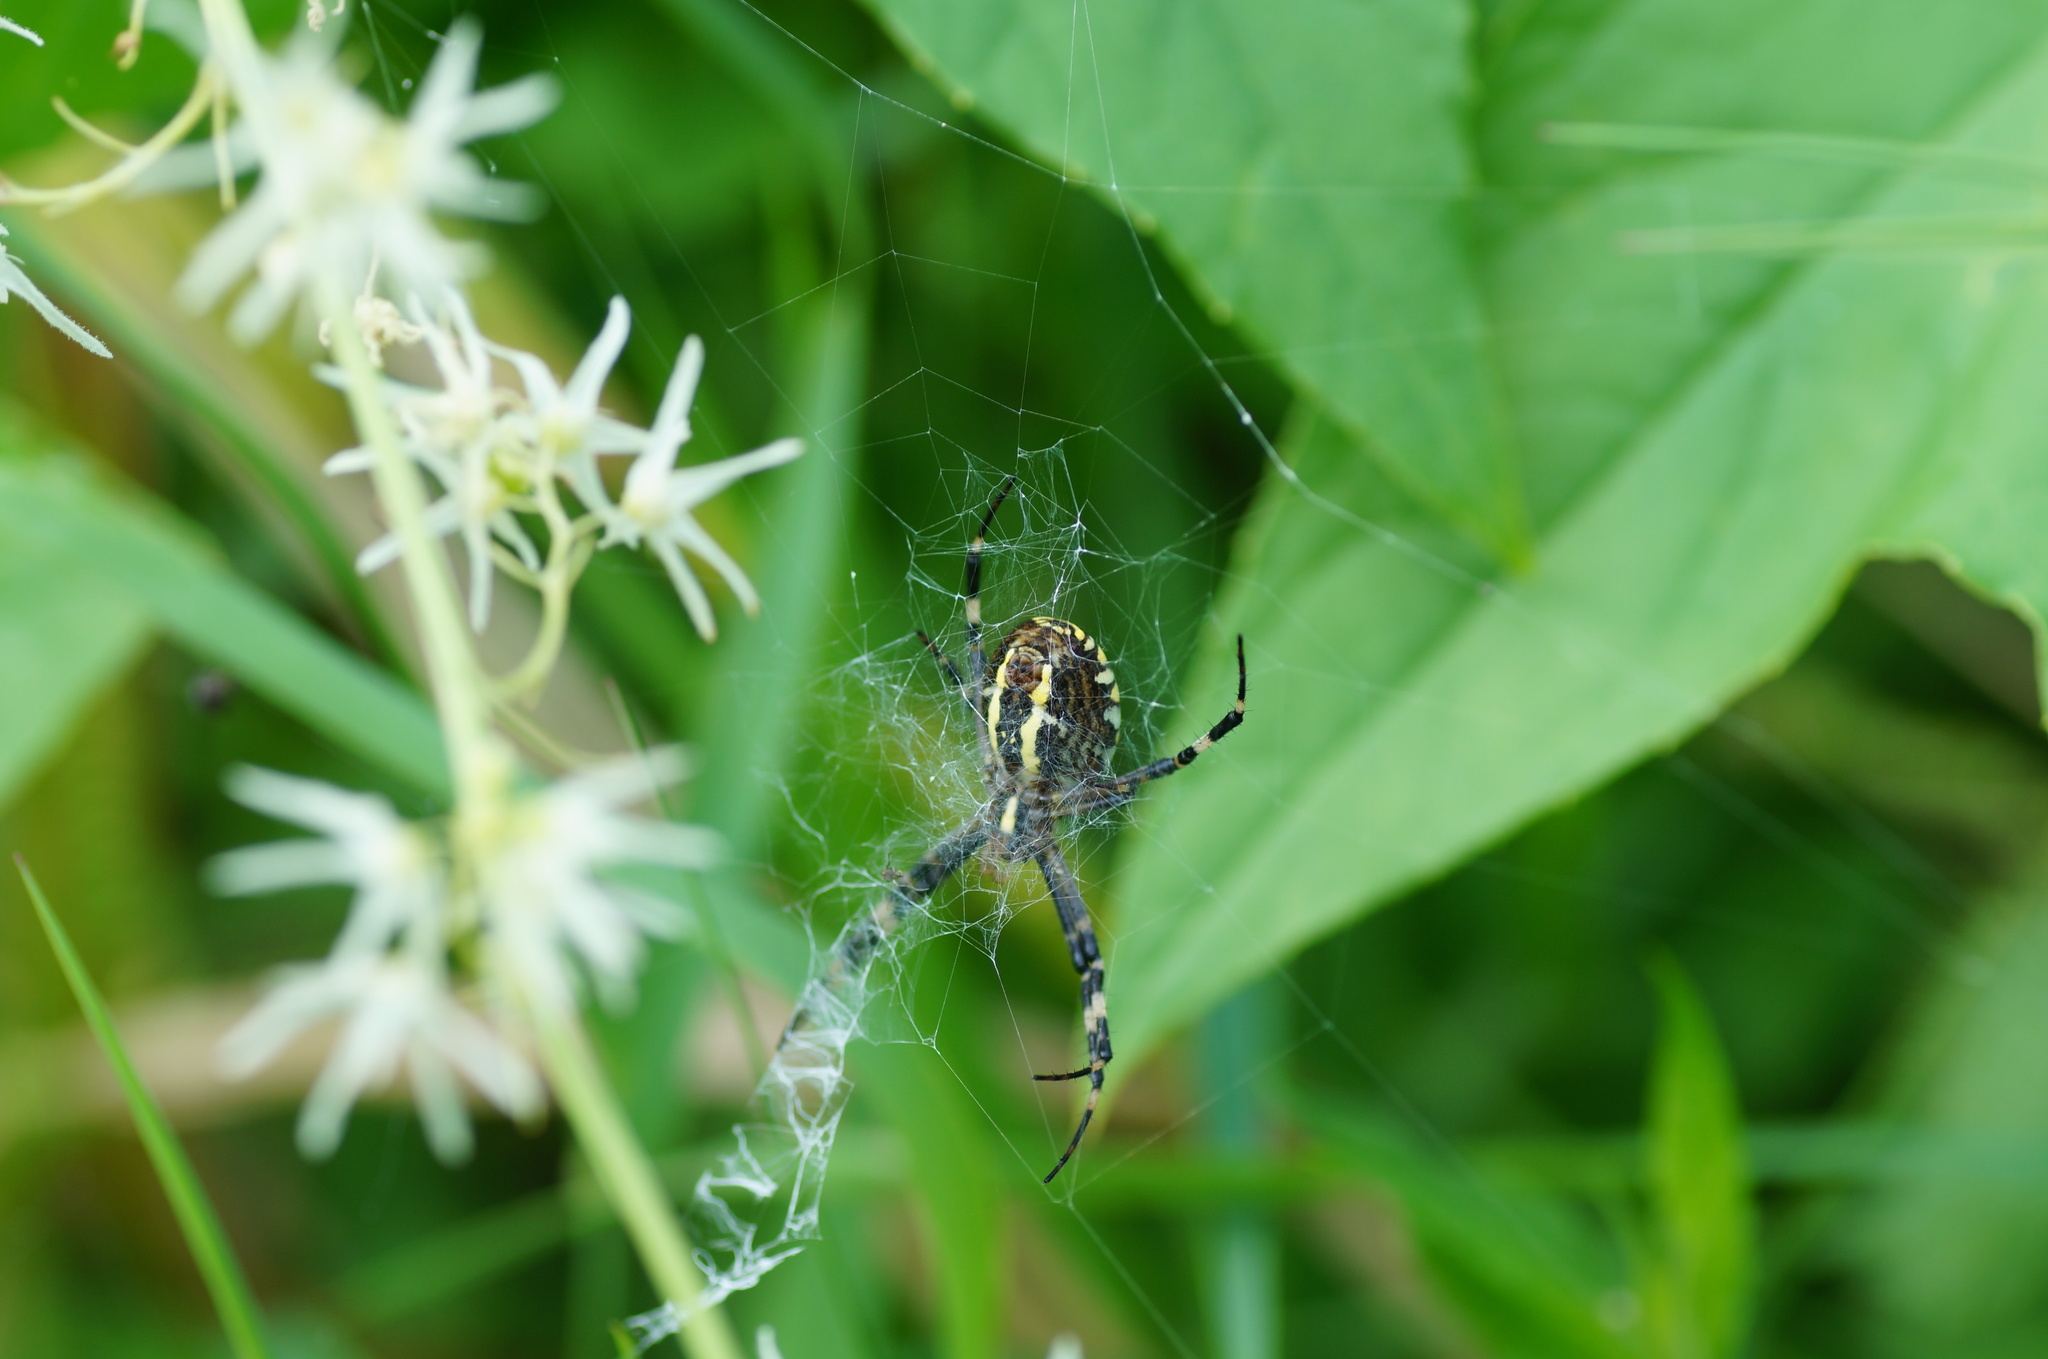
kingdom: Animalia
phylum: Arthropoda
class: Arachnida
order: Araneae
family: Araneidae
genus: Argiope
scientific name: Argiope bruennichi
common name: Wasp spider
